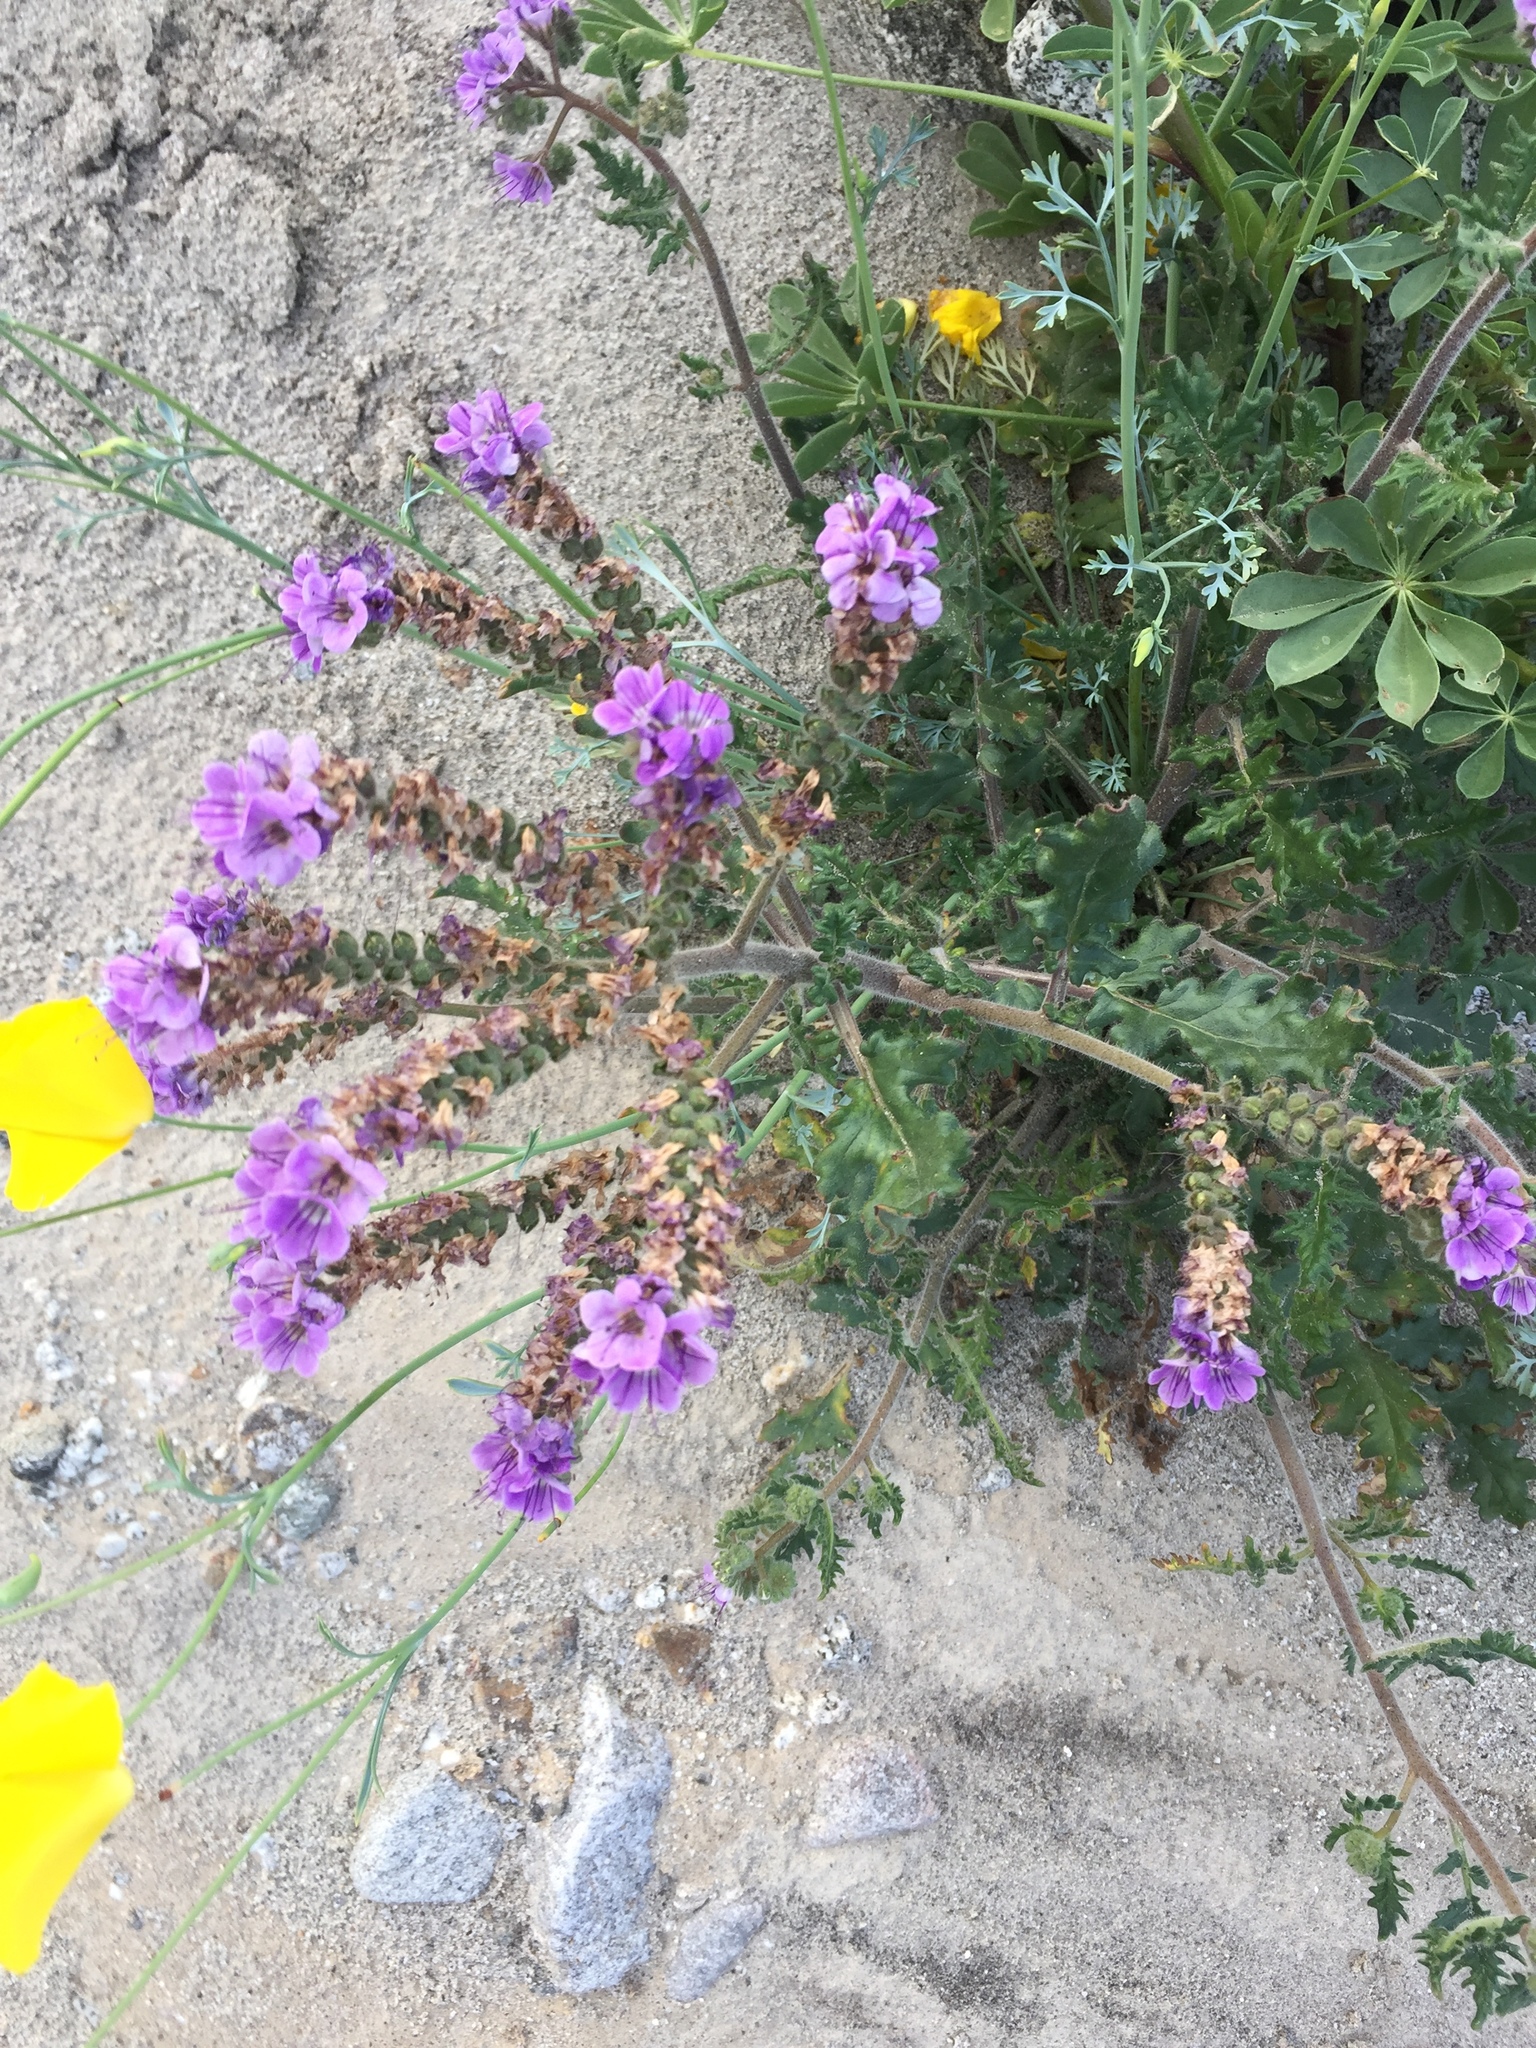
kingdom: Plantae
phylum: Tracheophyta
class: Magnoliopsida
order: Boraginales
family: Hydrophyllaceae
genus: Phacelia
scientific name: Phacelia crenulata
